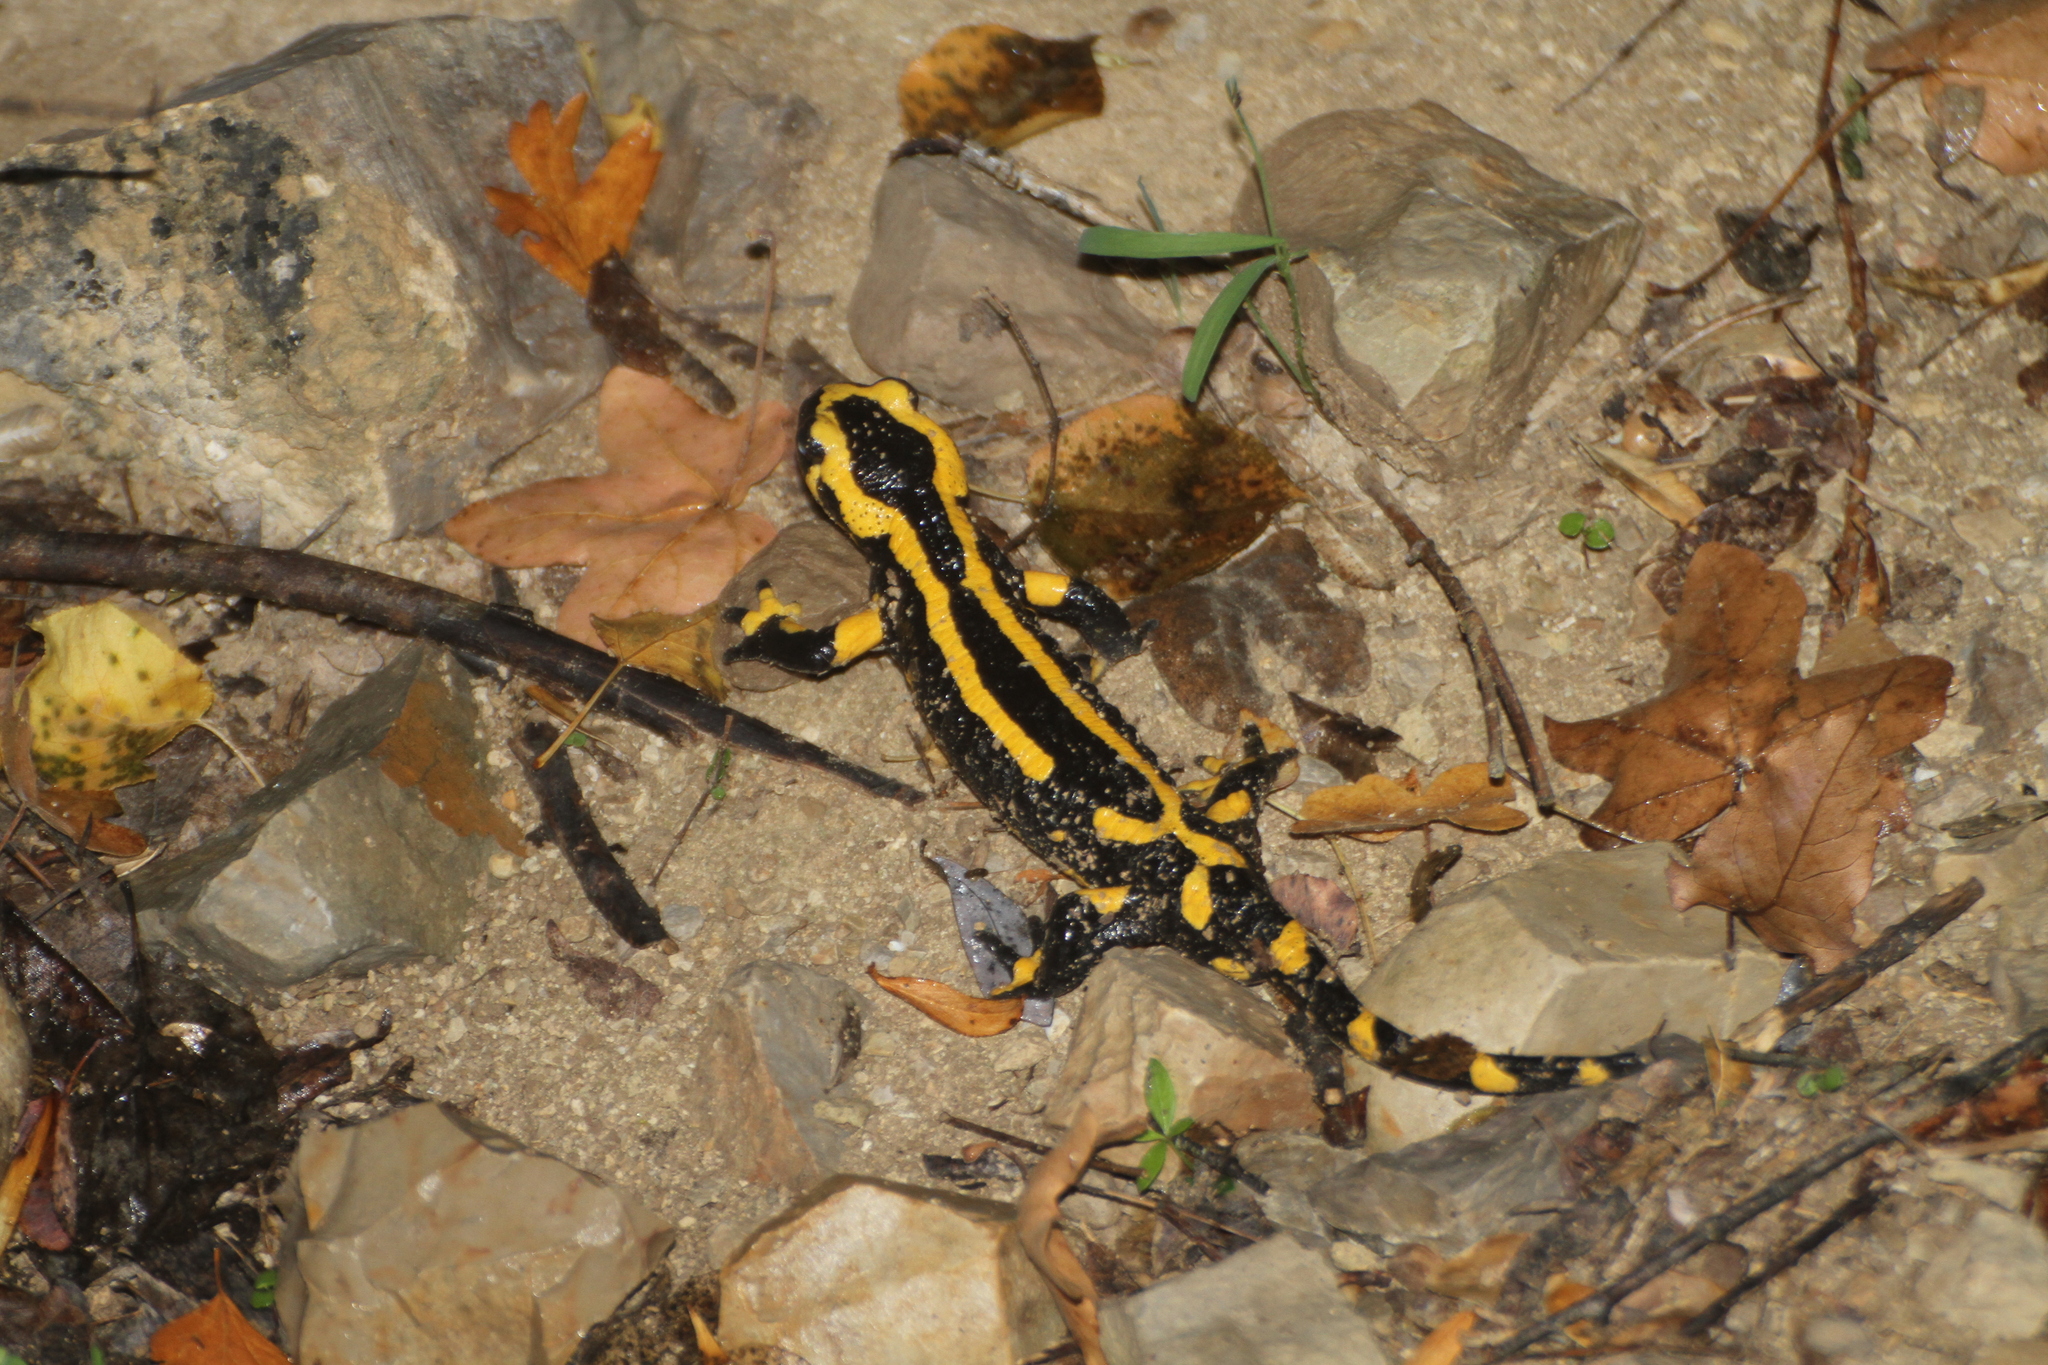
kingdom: Animalia
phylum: Chordata
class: Amphibia
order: Caudata
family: Salamandridae
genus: Salamandra
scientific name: Salamandra salamandra
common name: Fire salamander
